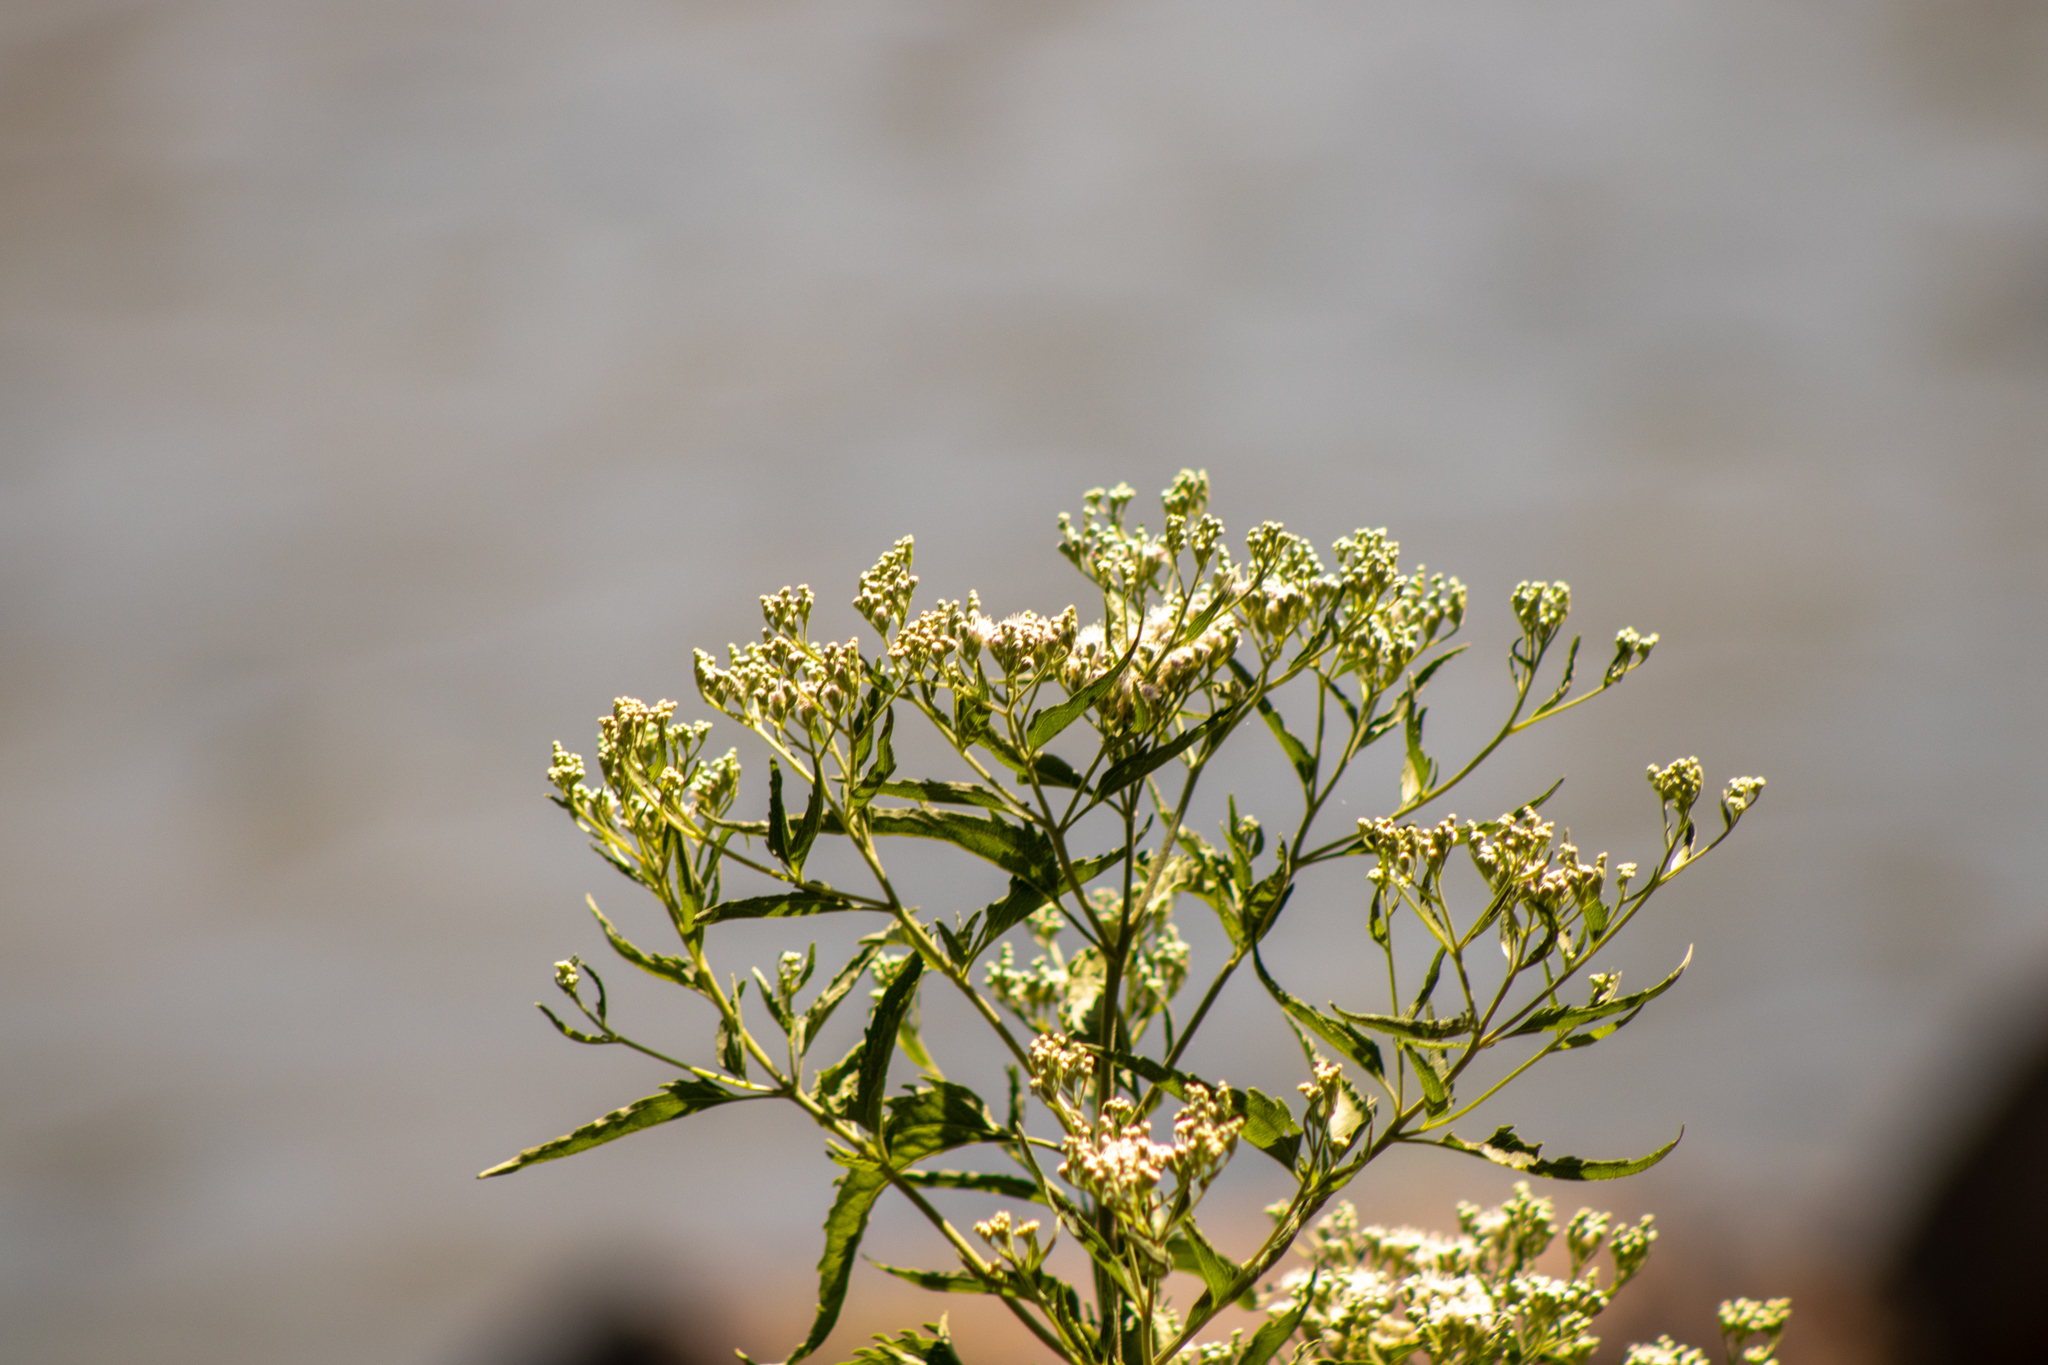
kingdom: Plantae
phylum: Tracheophyta
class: Magnoliopsida
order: Asterales
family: Asteraceae
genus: Eupatorium
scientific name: Eupatorium serotinum
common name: Late boneset
